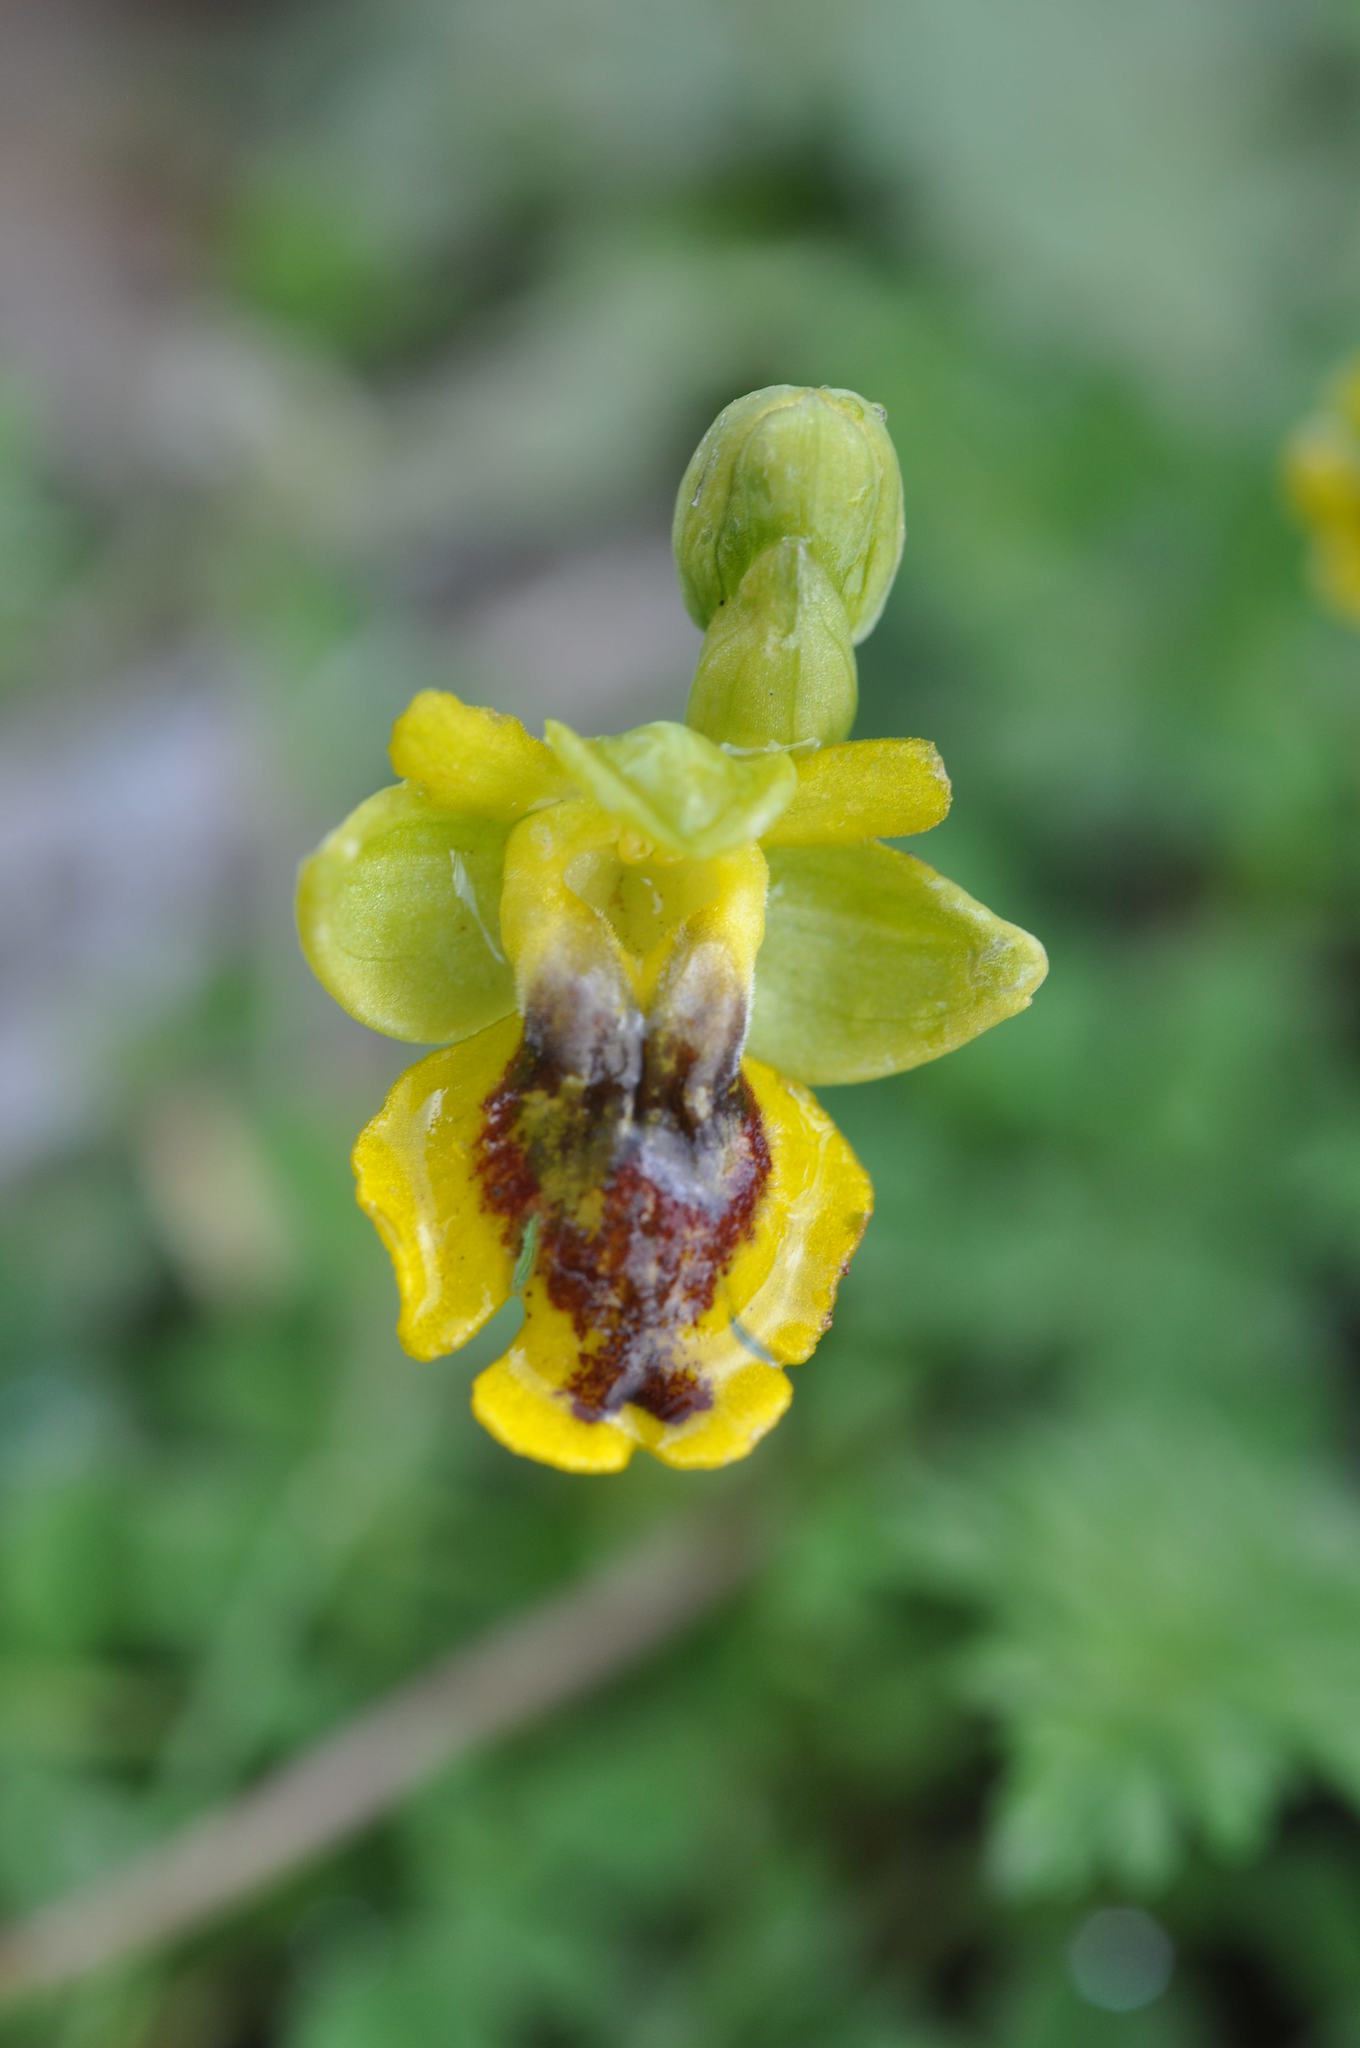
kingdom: Plantae
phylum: Tracheophyta
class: Liliopsida
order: Asparagales
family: Orchidaceae
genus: Ophrys
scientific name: Ophrys lutea
